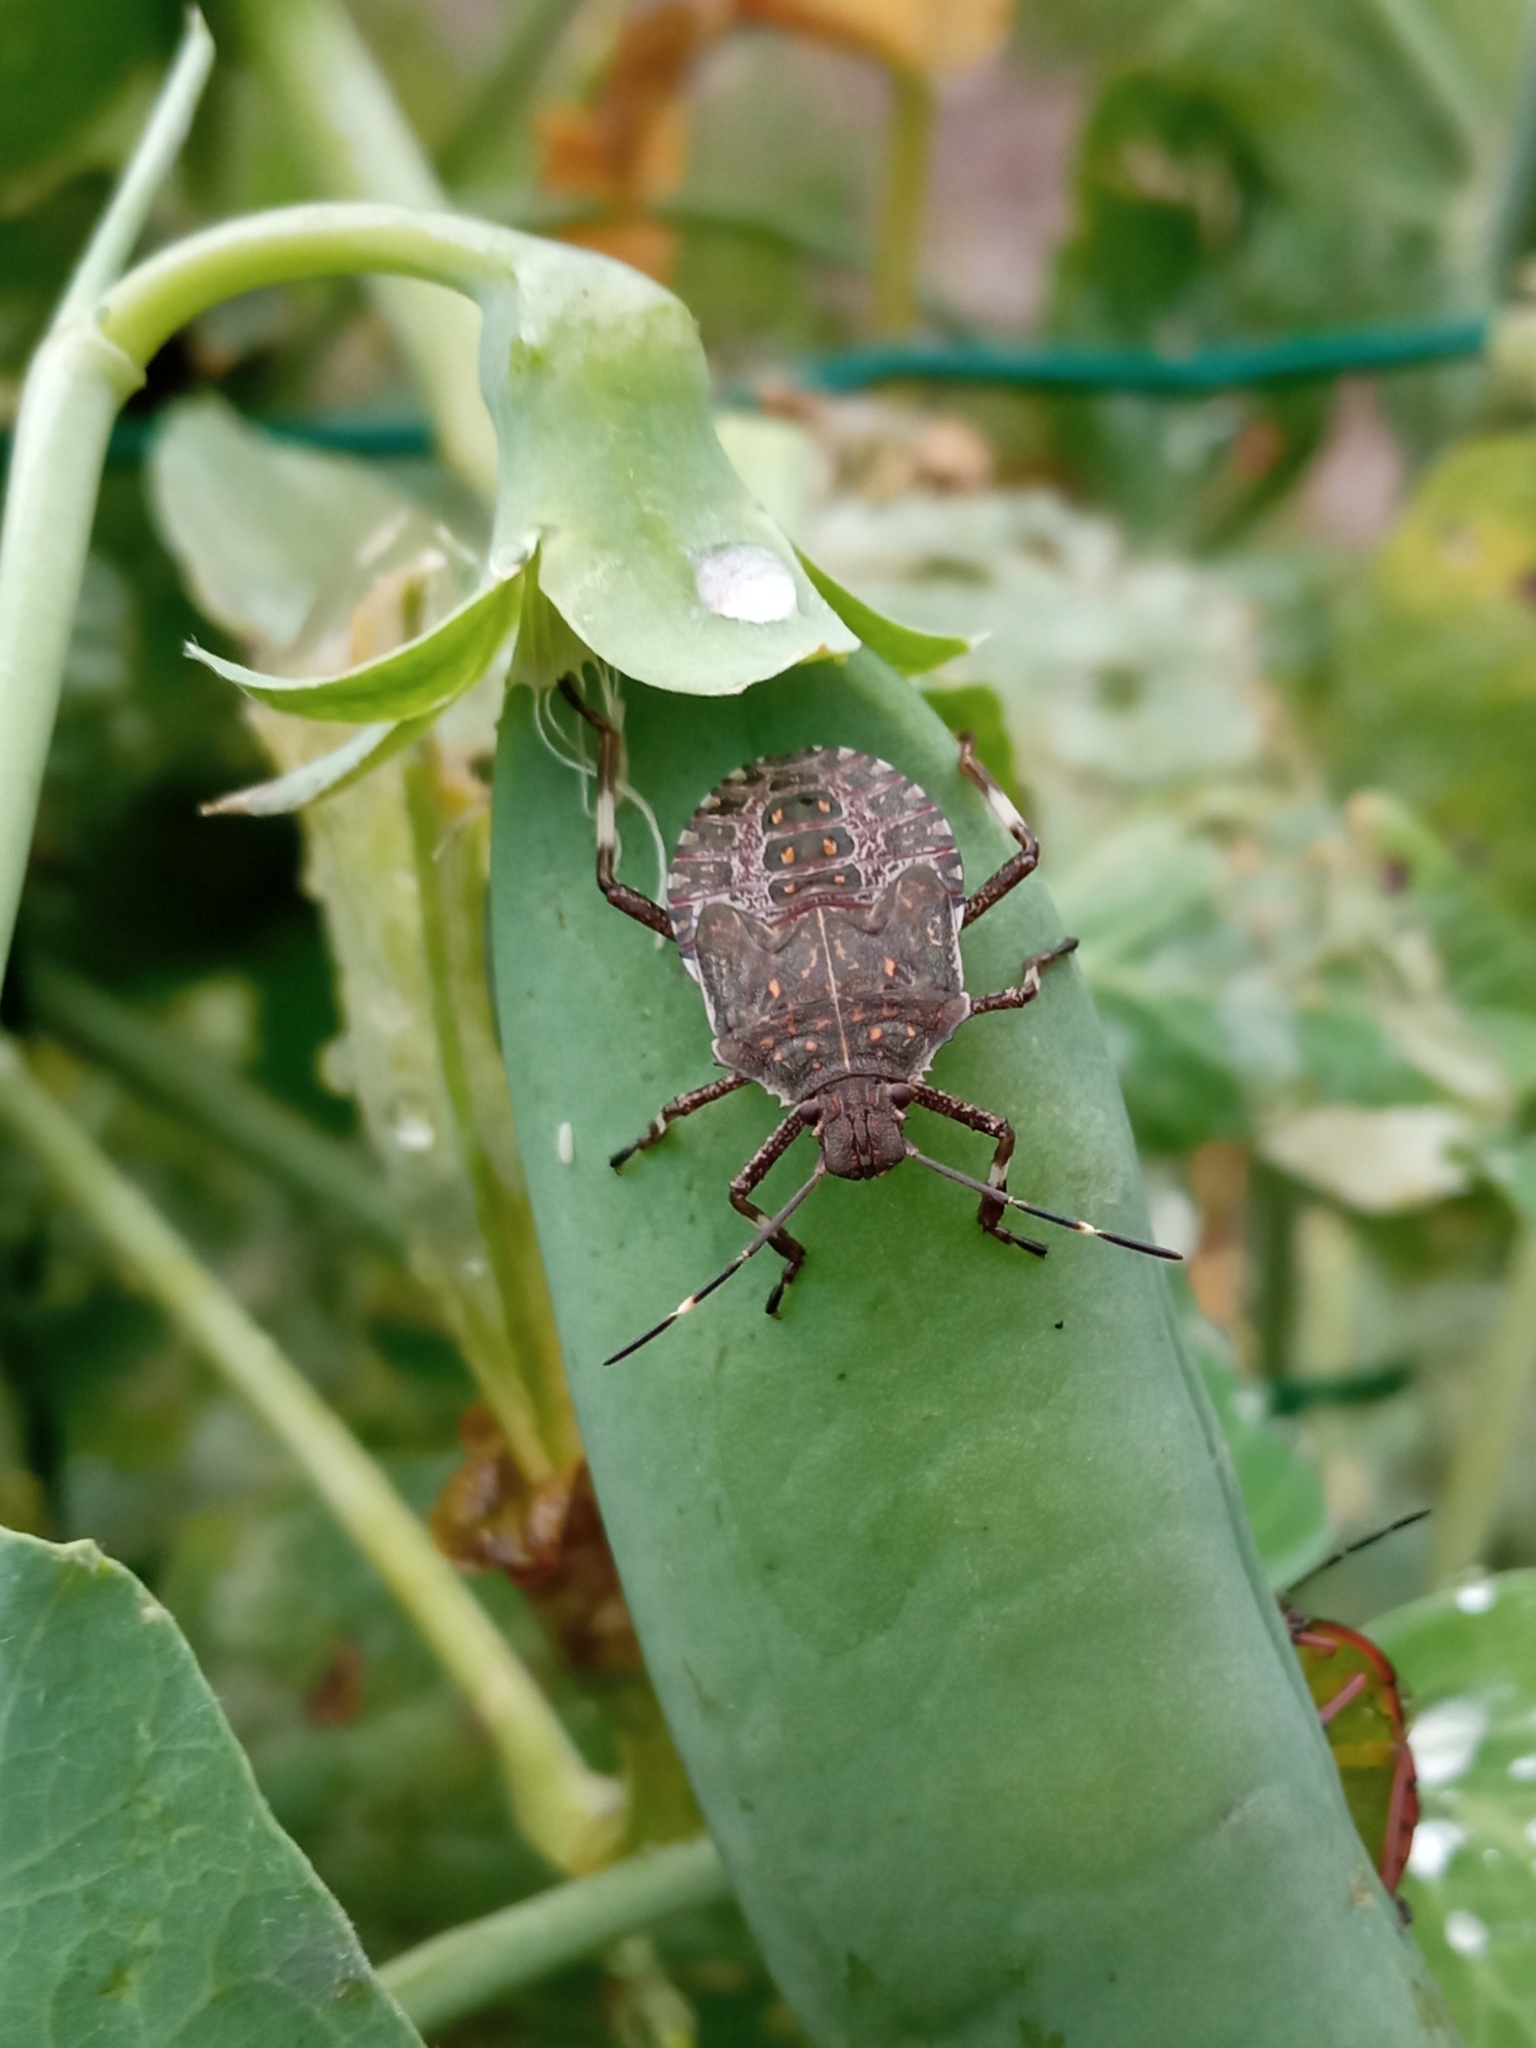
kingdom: Animalia
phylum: Arthropoda
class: Insecta
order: Hemiptera
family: Pentatomidae
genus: Halyomorpha
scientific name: Halyomorpha halys
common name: Brown marmorated stink bug
